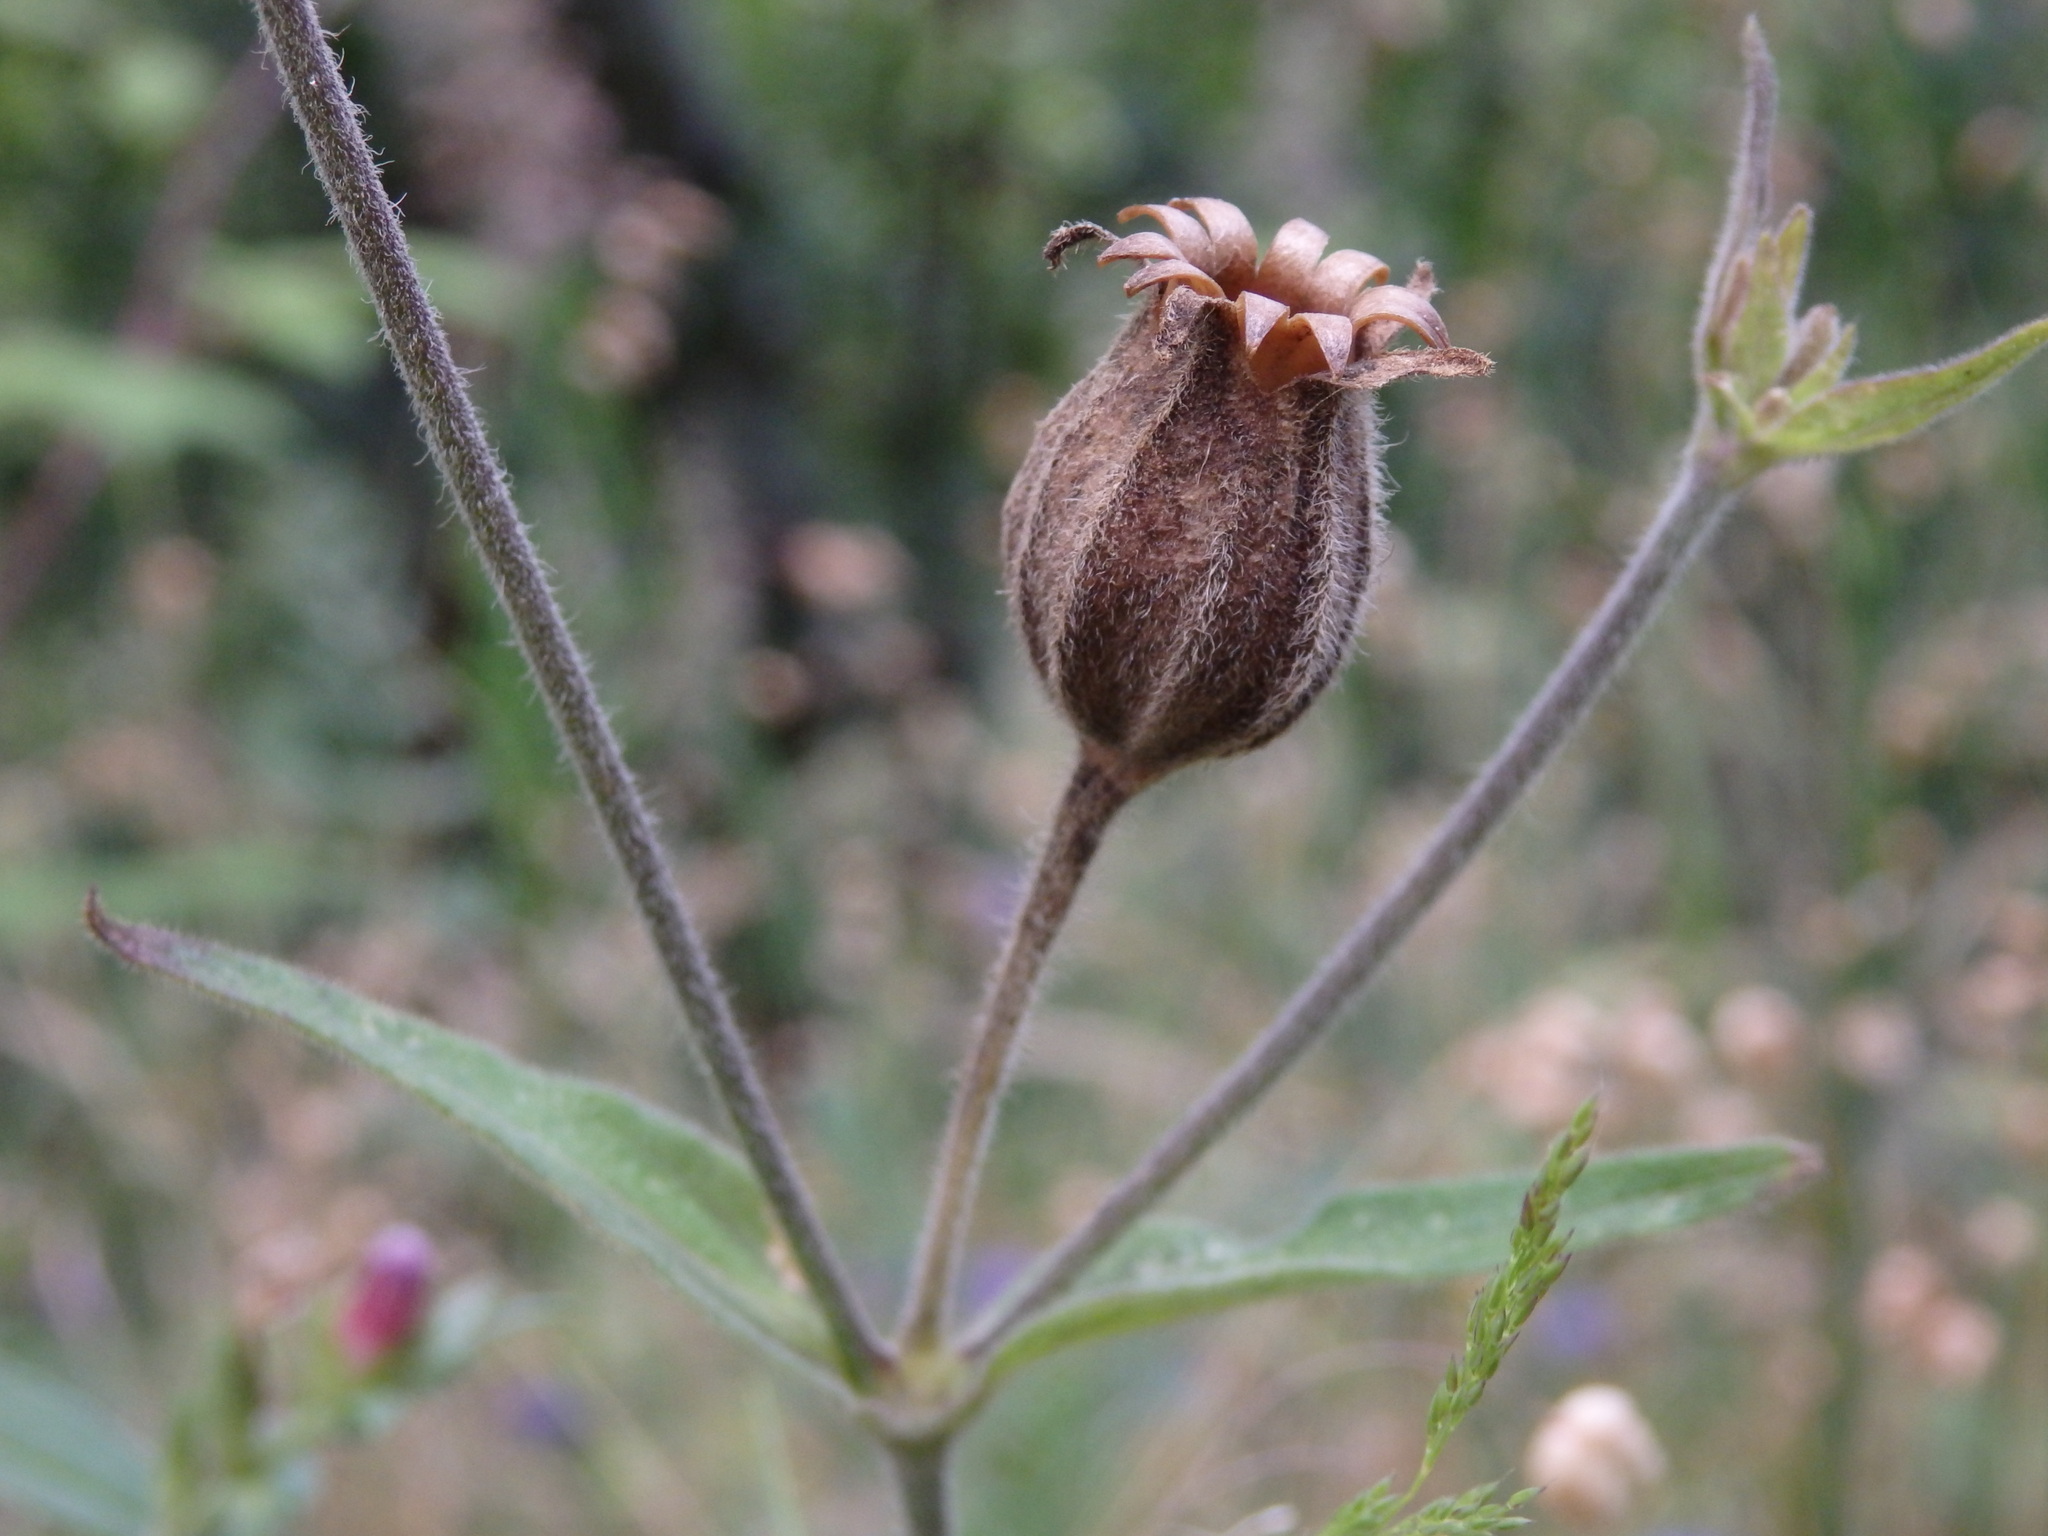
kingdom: Plantae
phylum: Tracheophyta
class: Magnoliopsida
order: Caryophyllales
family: Caryophyllaceae
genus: Silene
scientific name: Silene latifolia
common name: White campion
